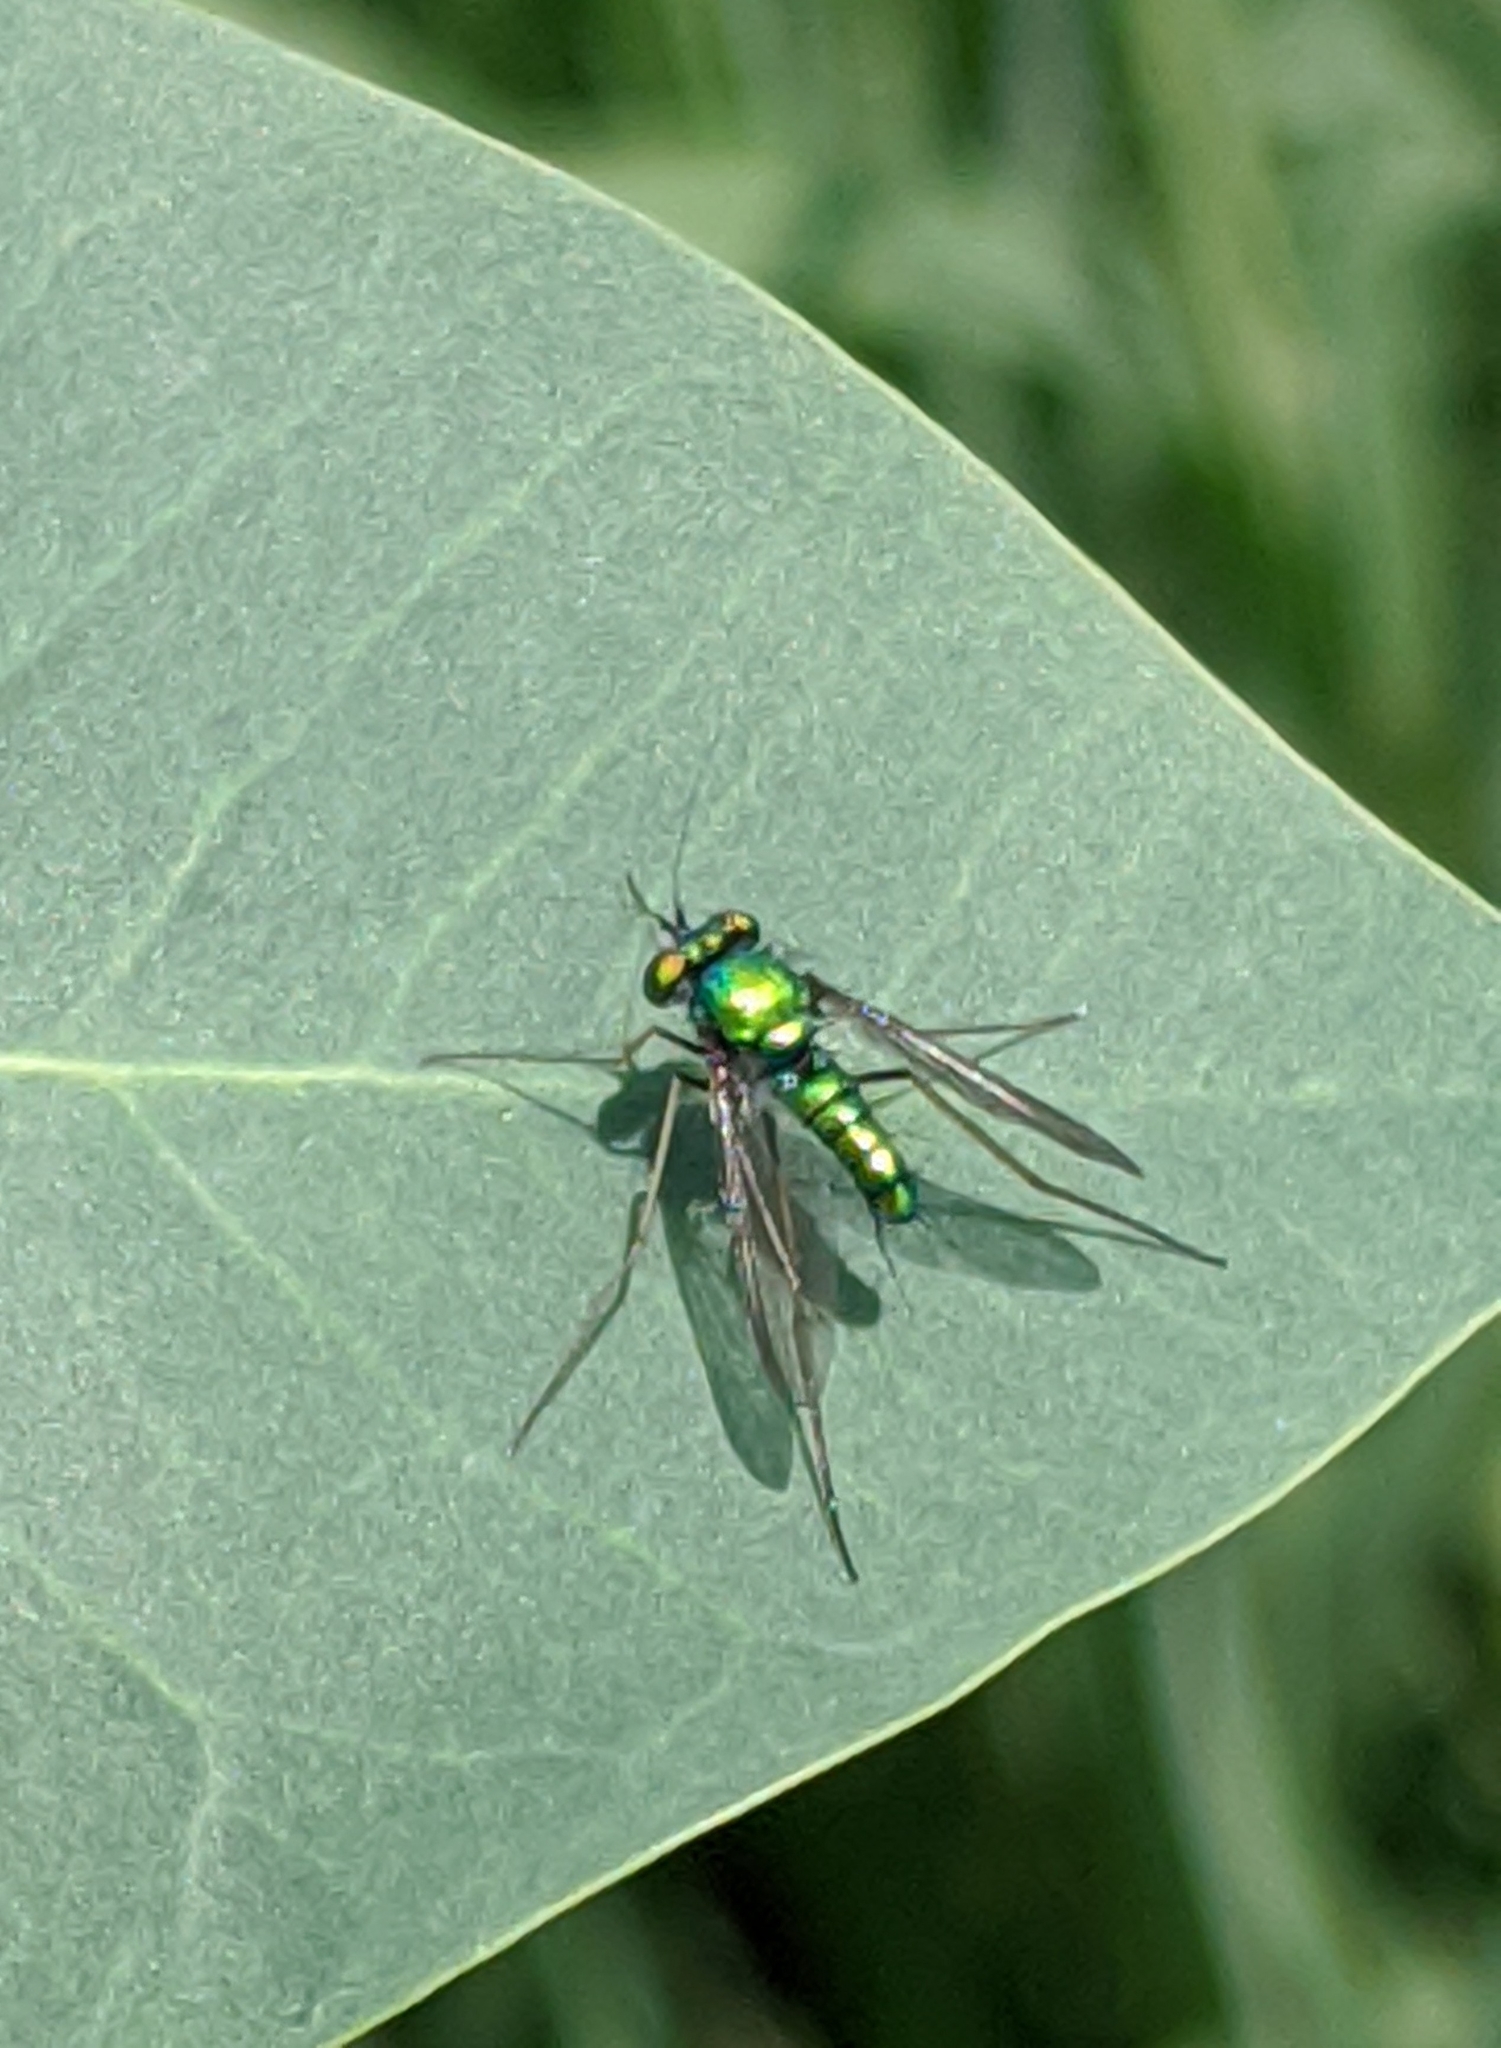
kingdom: Animalia
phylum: Arthropoda
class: Insecta
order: Diptera
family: Dolichopodidae
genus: Condylostylus
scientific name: Condylostylus comatus
